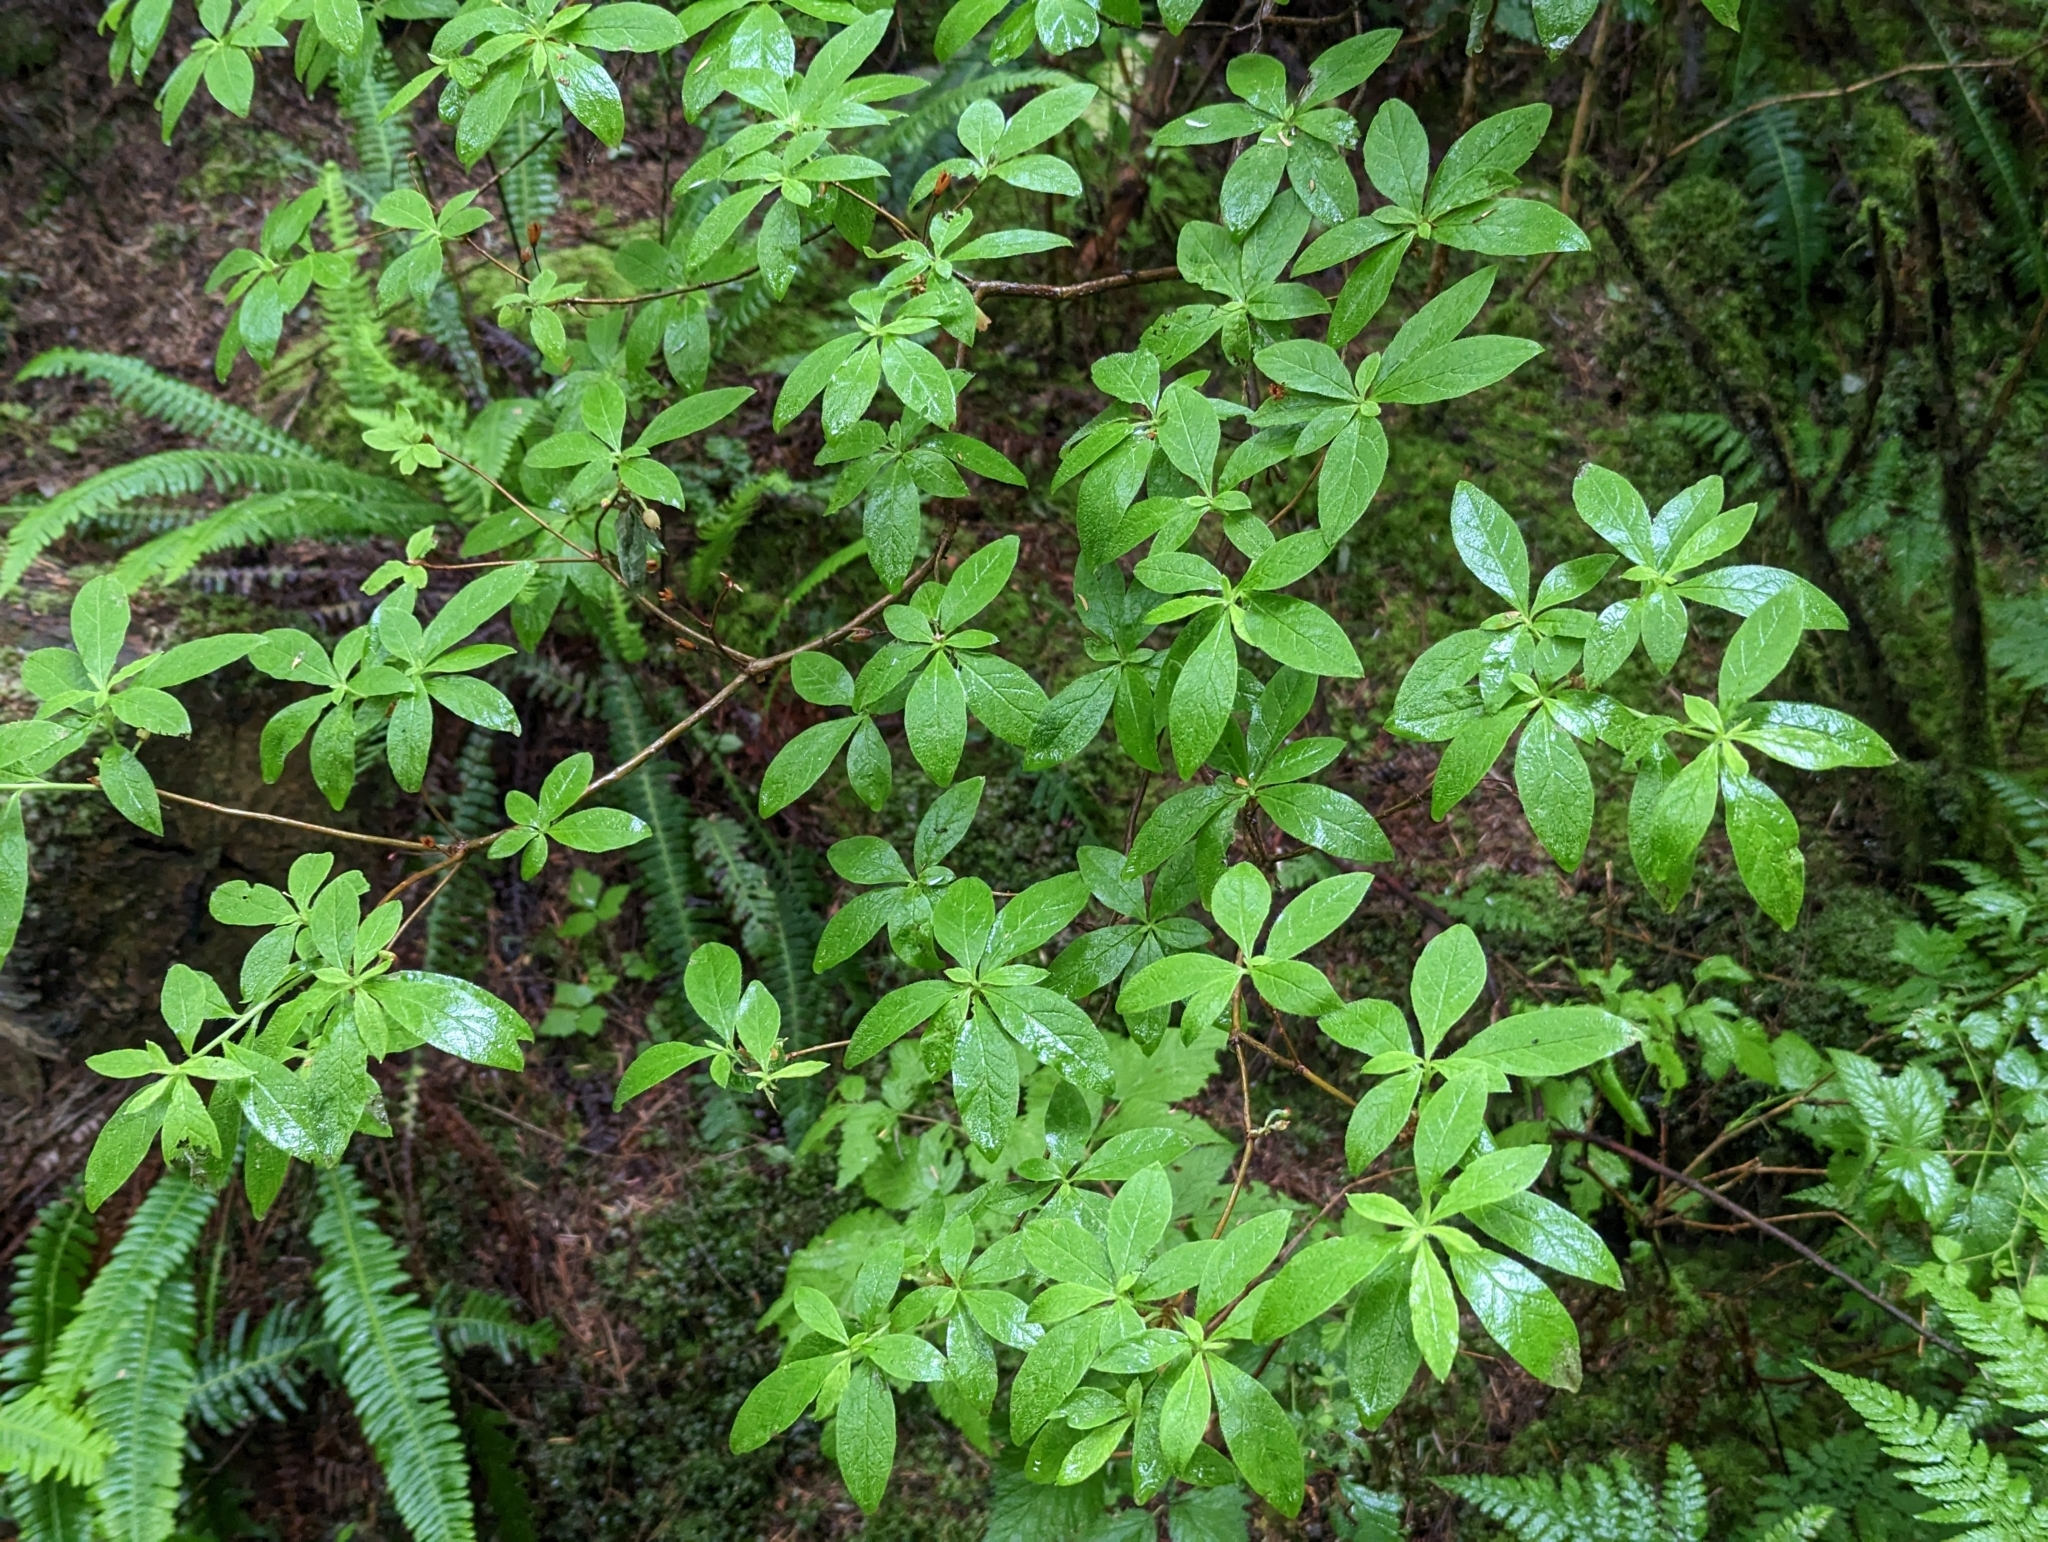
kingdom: Plantae
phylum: Tracheophyta
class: Magnoliopsida
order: Ericales
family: Ericaceae
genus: Rhododendron
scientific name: Rhododendron menziesii
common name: Pacific menziesia
